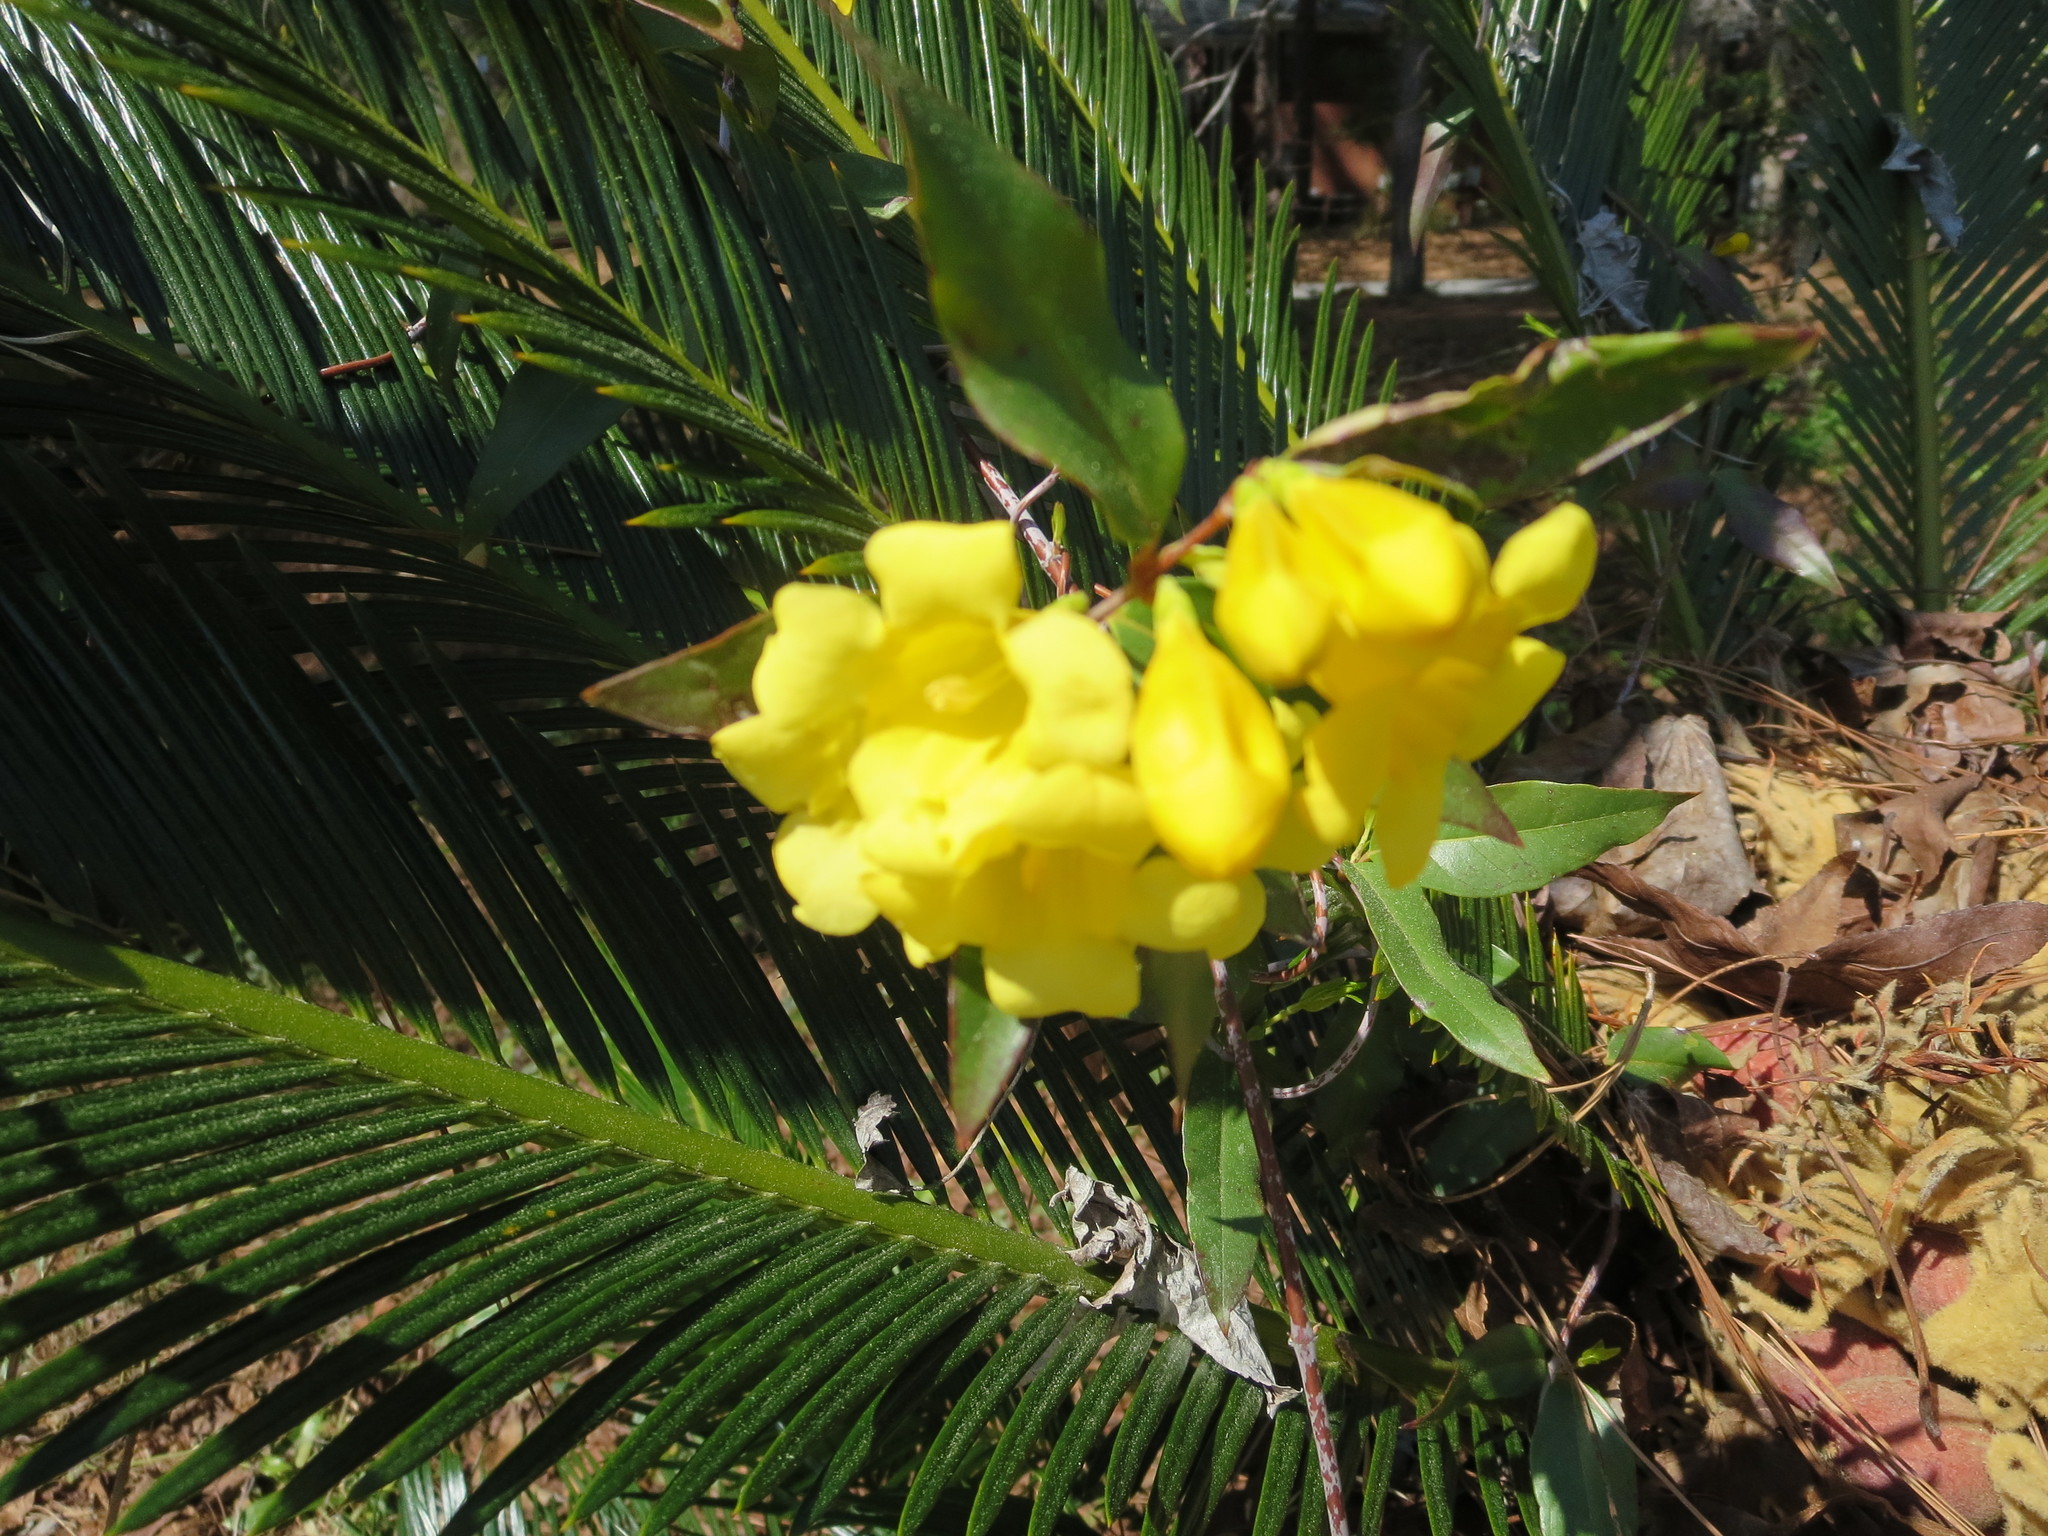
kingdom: Plantae
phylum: Tracheophyta
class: Magnoliopsida
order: Gentianales
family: Gelsemiaceae
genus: Gelsemium
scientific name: Gelsemium sempervirens
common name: Carolina-jasmine
